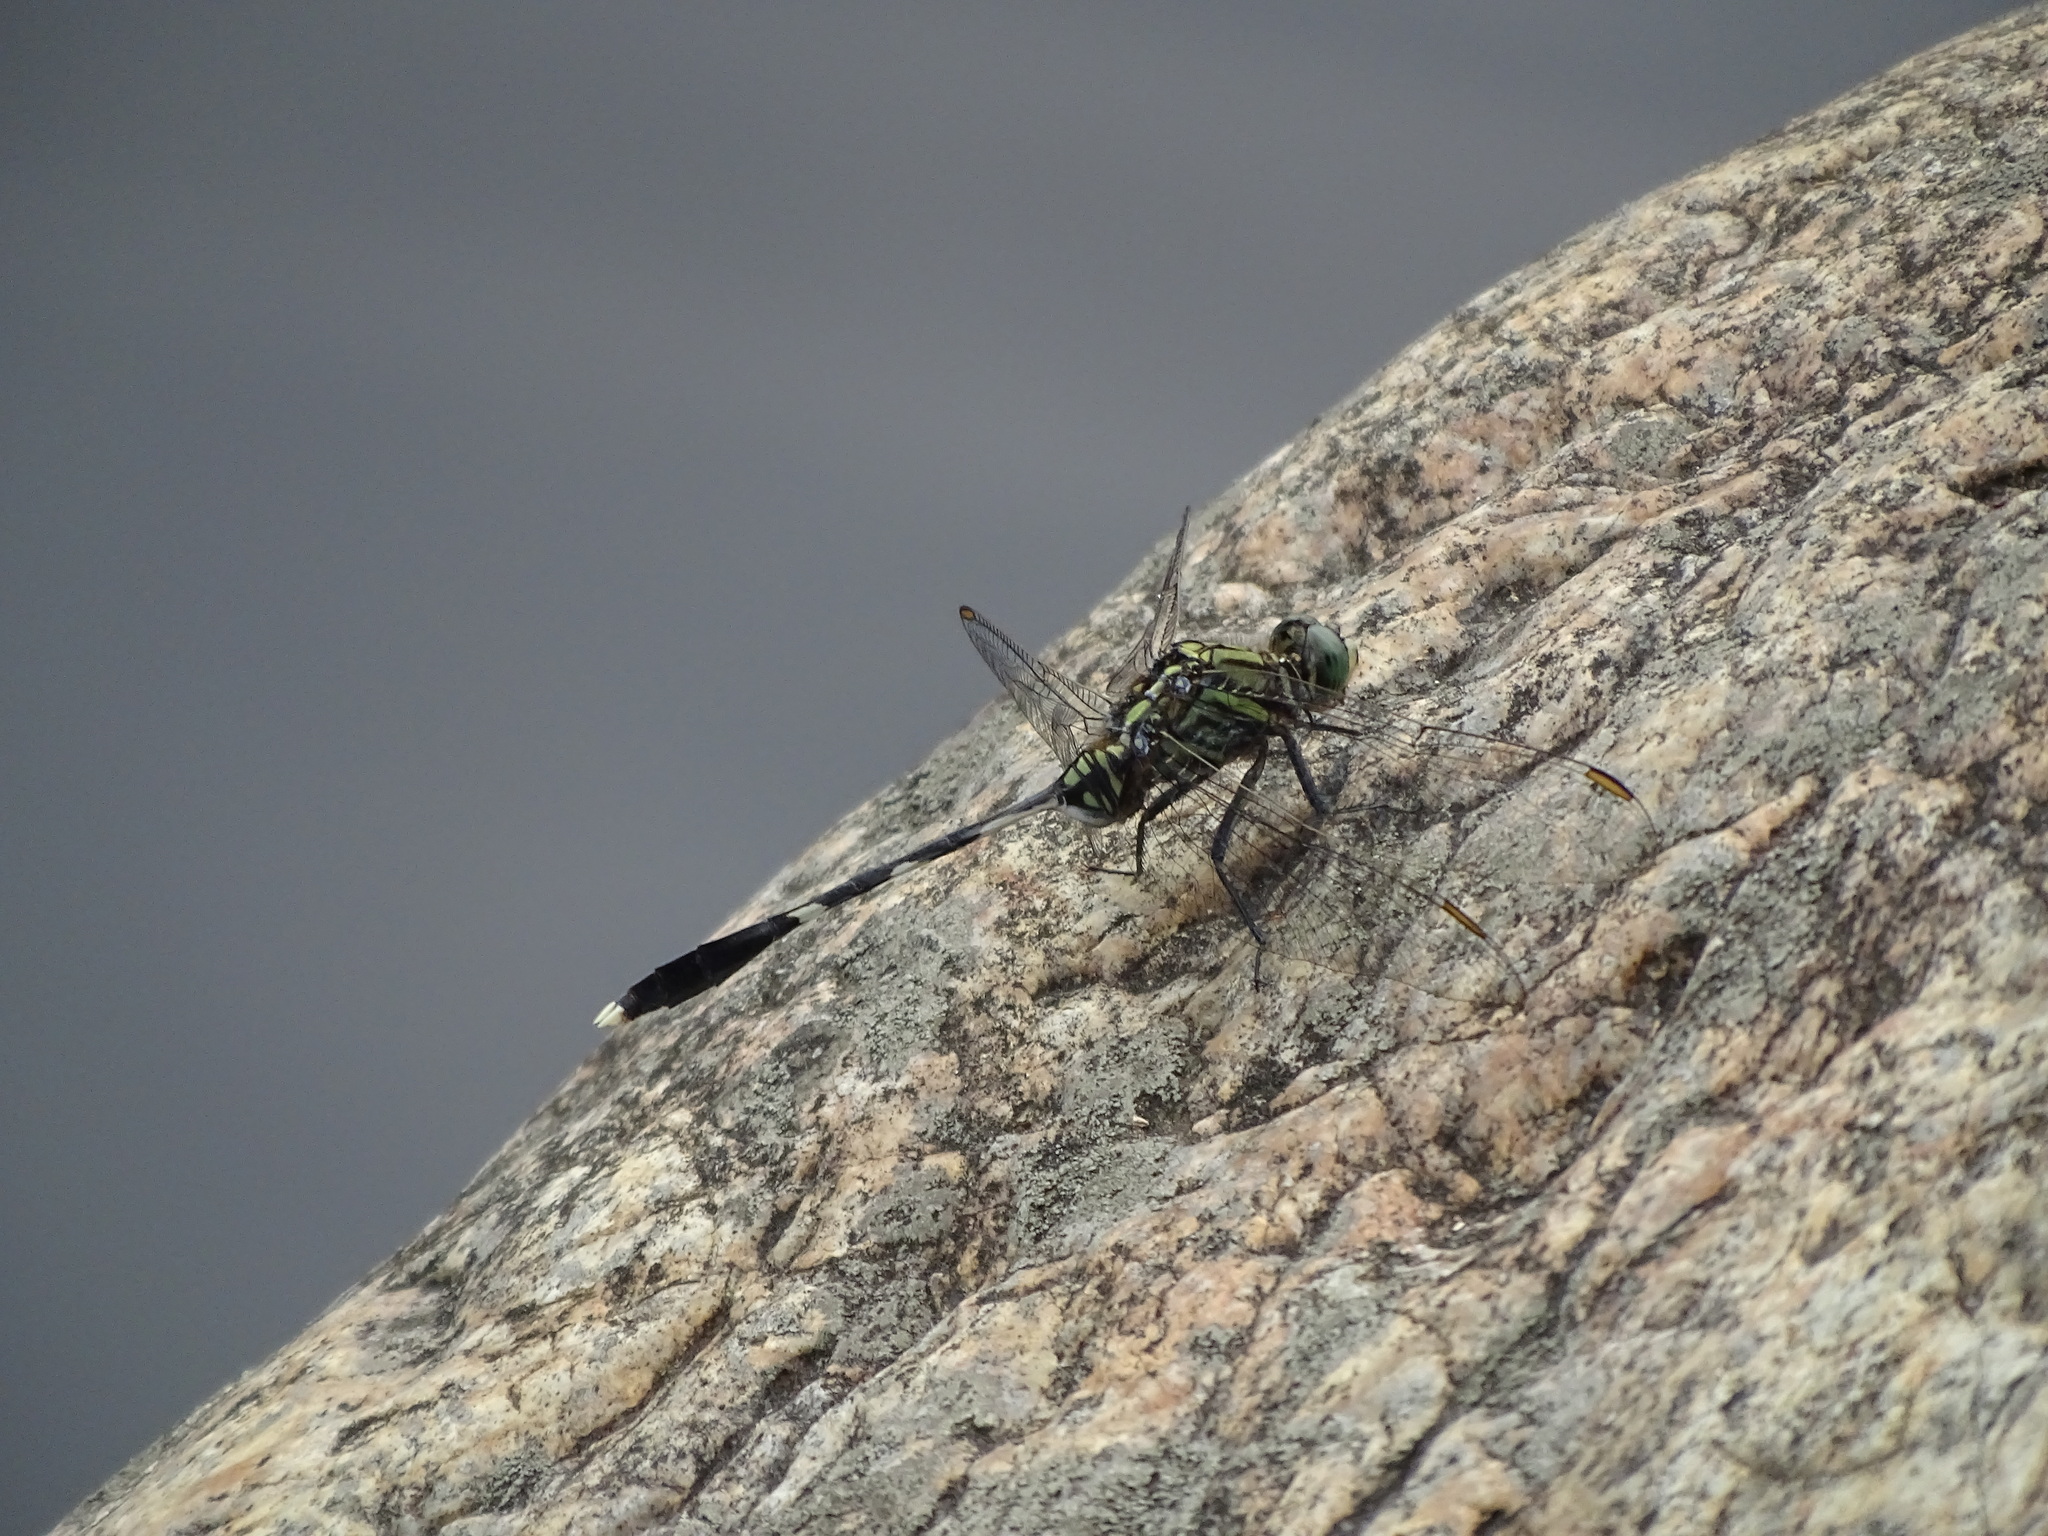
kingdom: Animalia
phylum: Arthropoda
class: Insecta
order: Odonata
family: Libellulidae
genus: Orthetrum
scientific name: Orthetrum sabina
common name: Slender skimmer
